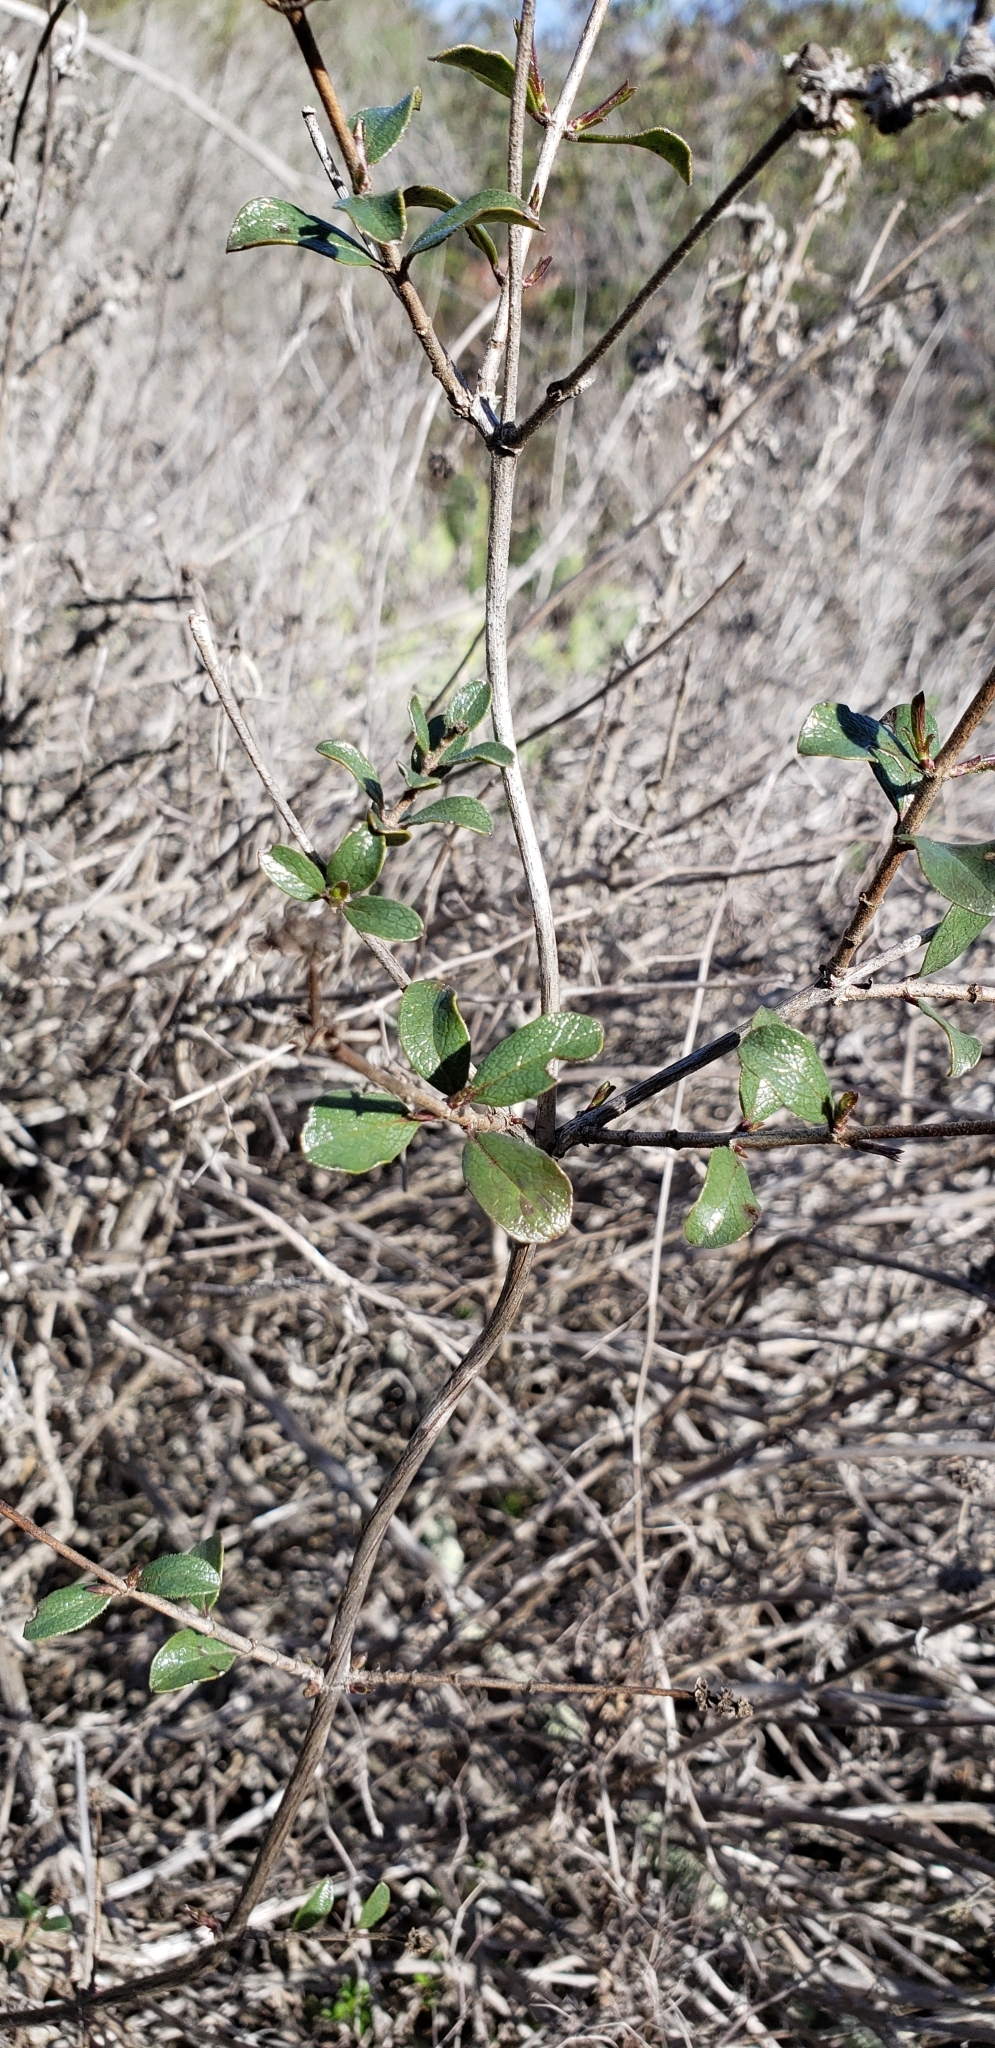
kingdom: Plantae
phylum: Tracheophyta
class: Magnoliopsida
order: Dipsacales
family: Caprifoliaceae
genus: Lonicera
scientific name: Lonicera subspicata
